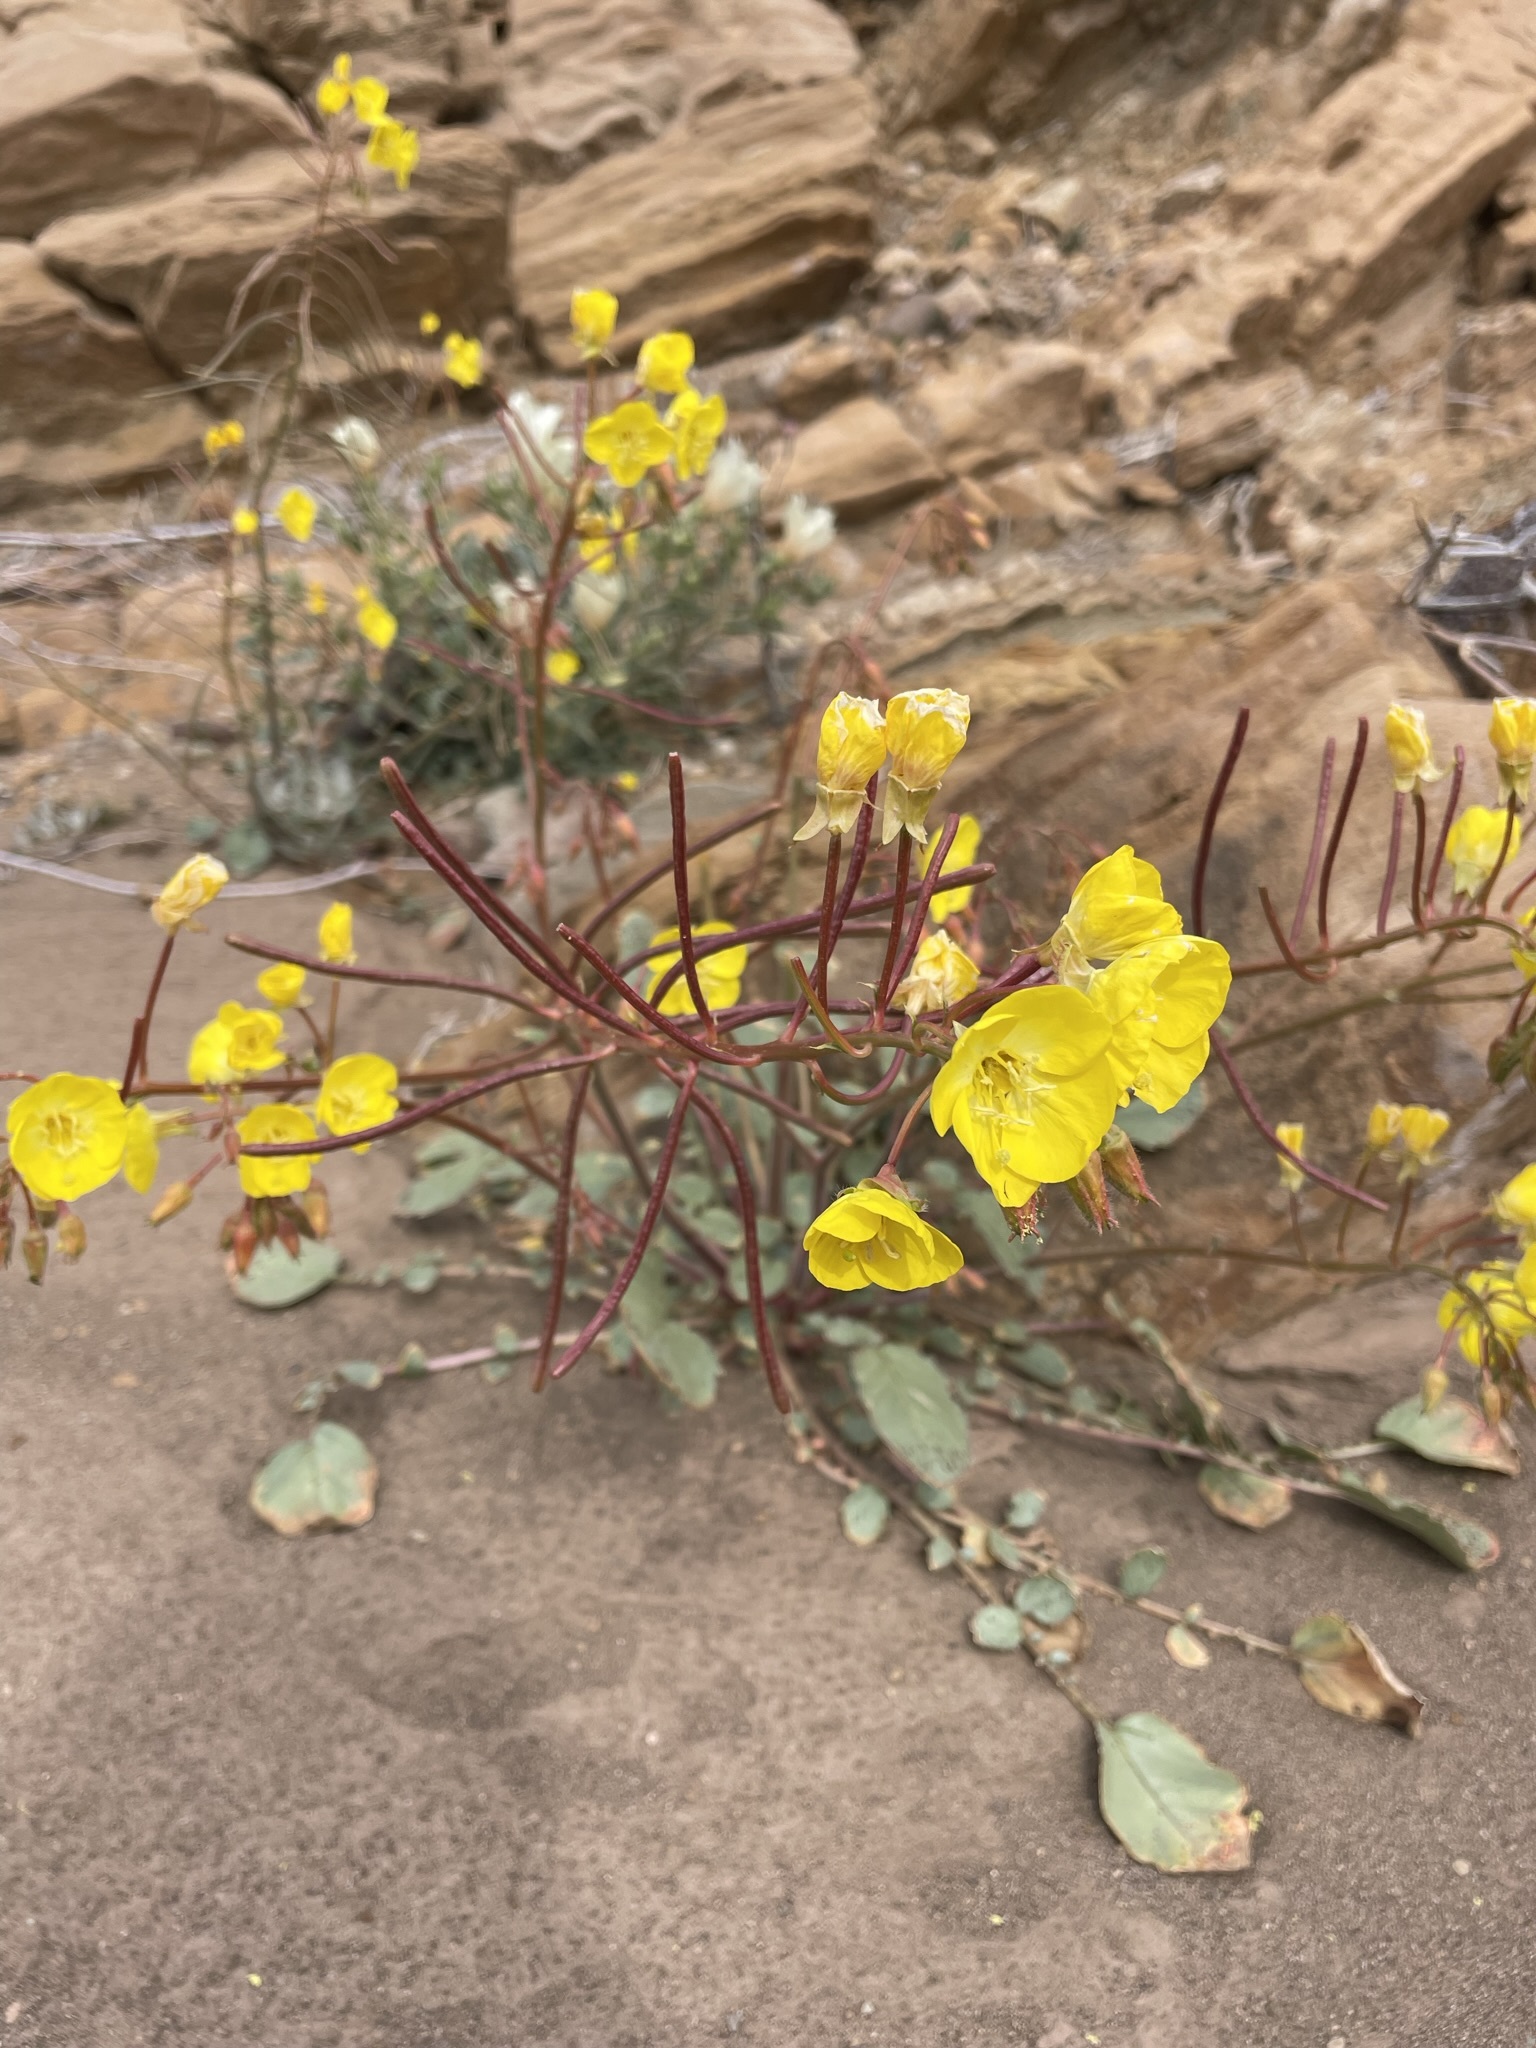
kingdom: Plantae
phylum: Tracheophyta
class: Magnoliopsida
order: Myrtales
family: Onagraceae
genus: Chylismia
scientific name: Chylismia brevipes
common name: Yellow cups
